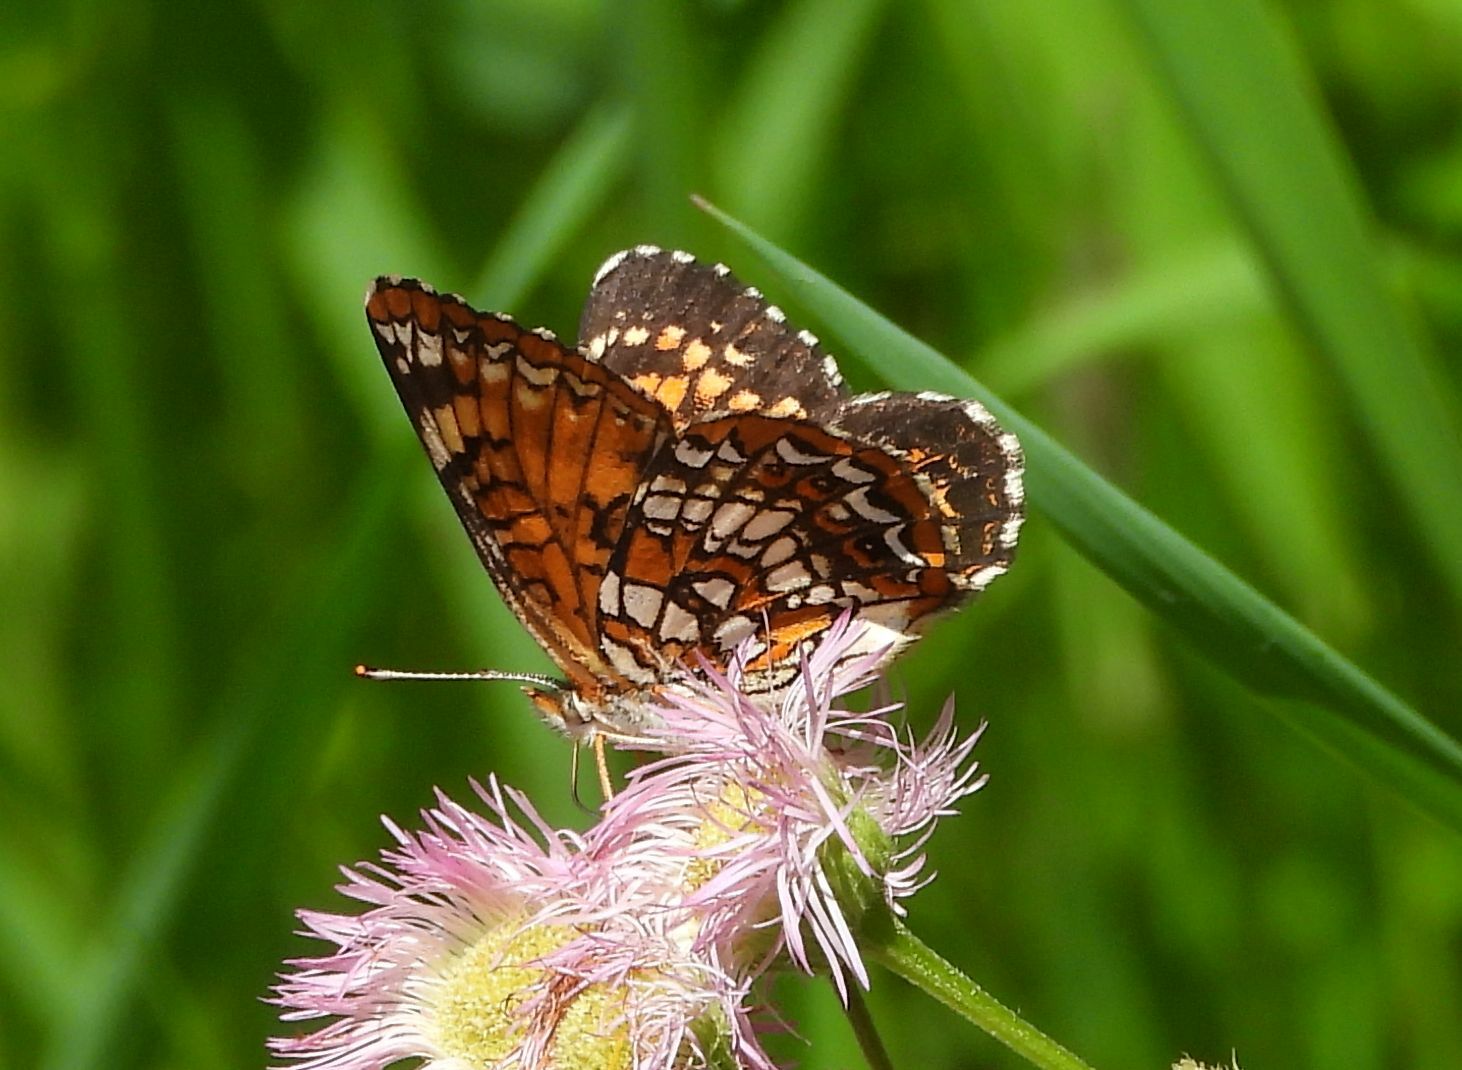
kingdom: Animalia
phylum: Arthropoda
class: Insecta
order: Lepidoptera
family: Nymphalidae
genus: Chlosyne
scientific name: Chlosyne harrisii
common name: Harris's checkerspot
